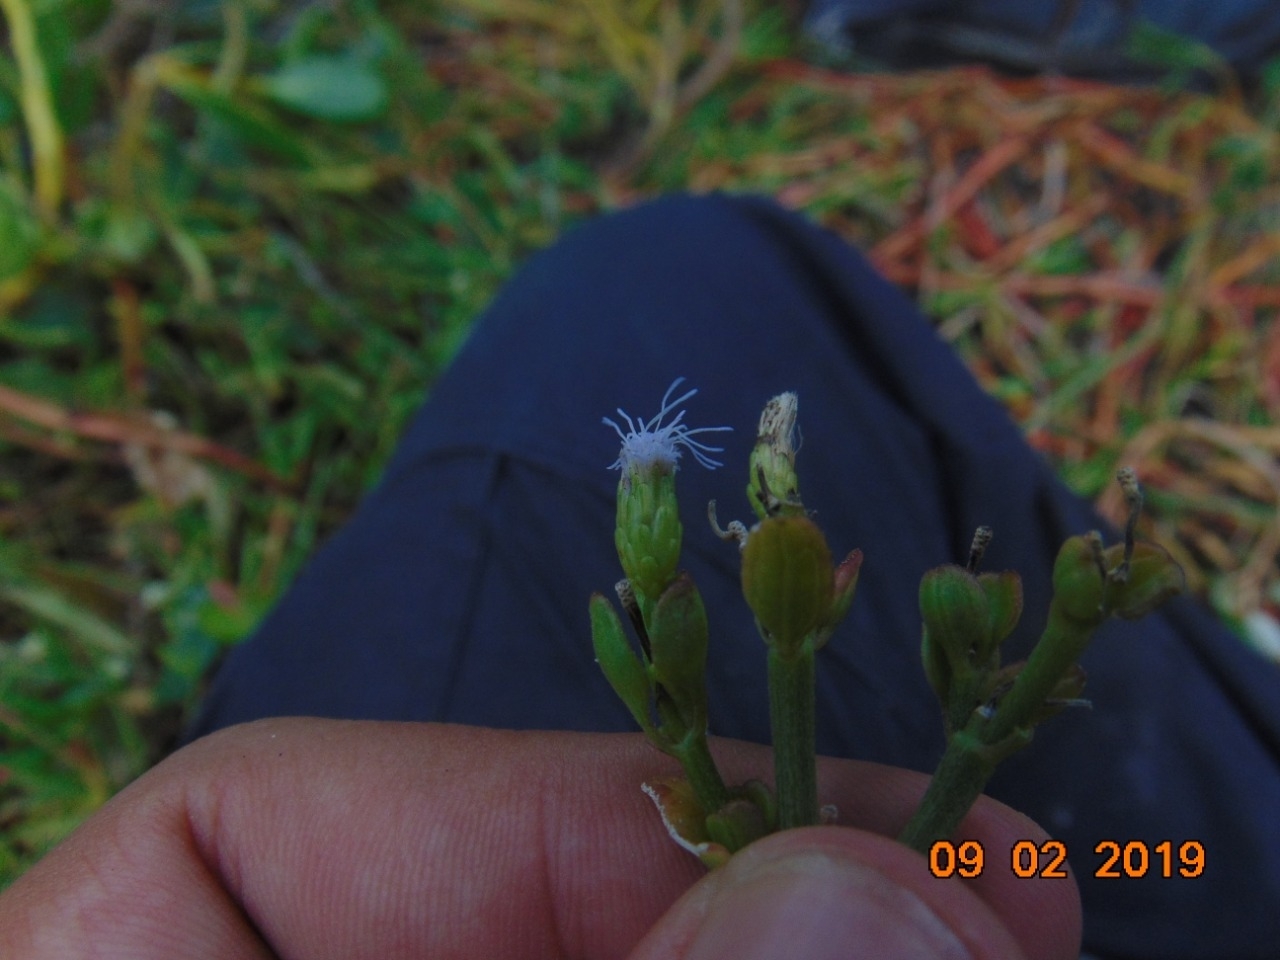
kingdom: Plantae
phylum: Tracheophyta
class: Magnoliopsida
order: Asterales
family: Asteraceae
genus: Chromolaena
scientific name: Chromolaena odorata
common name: Siamweed
